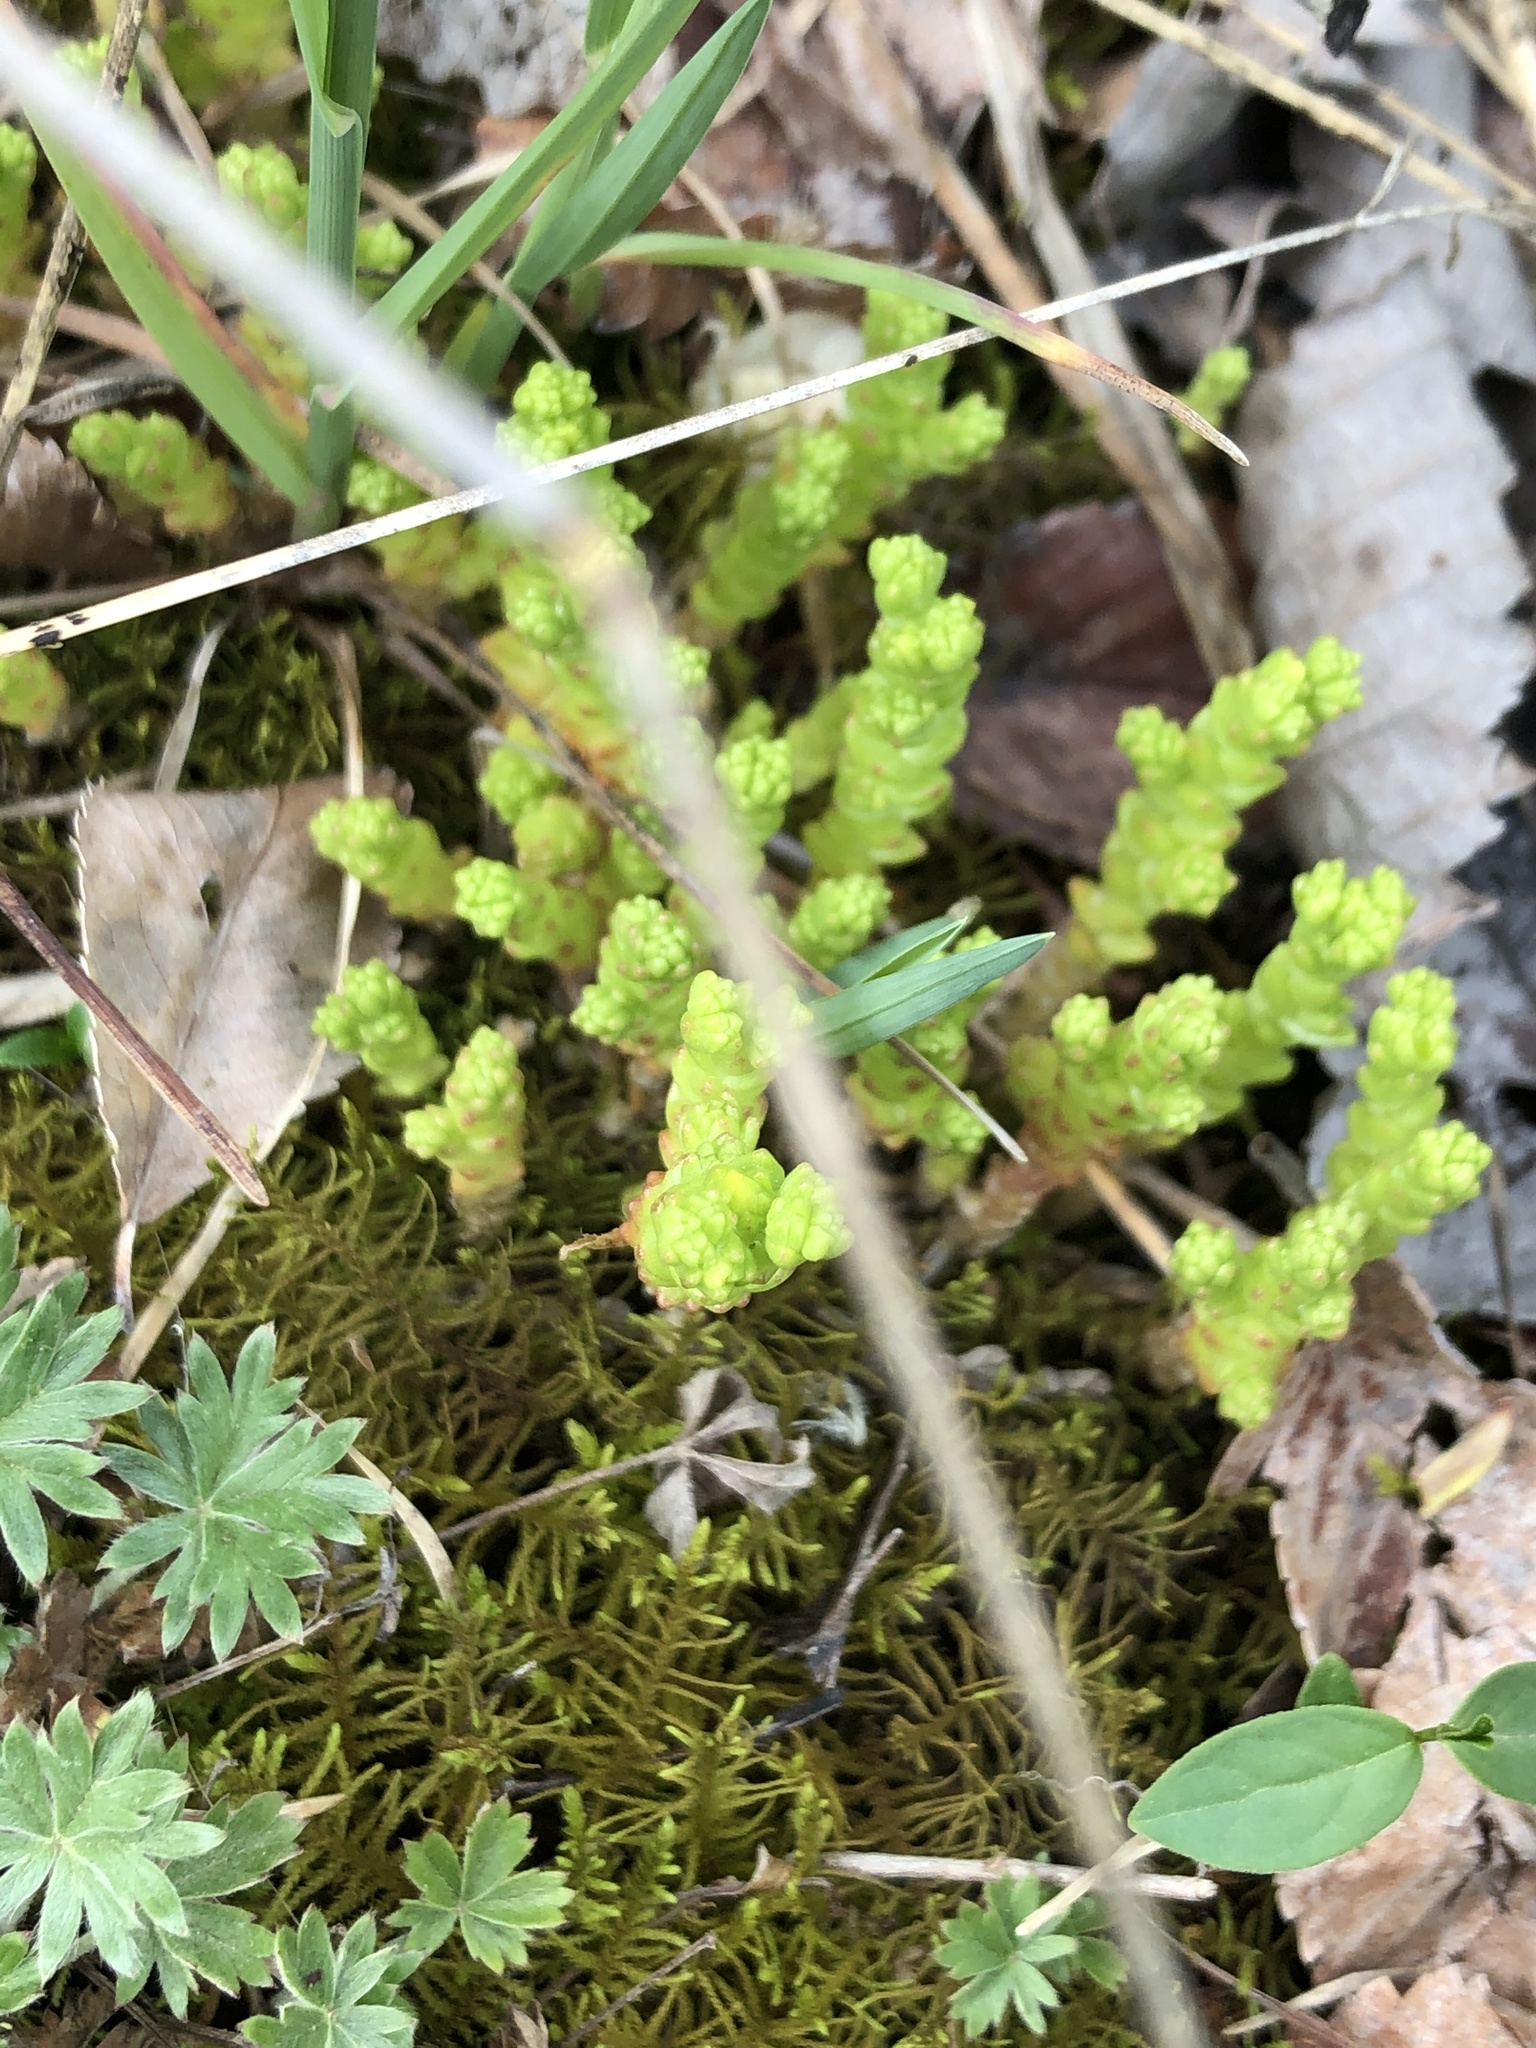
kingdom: Plantae
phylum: Tracheophyta
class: Magnoliopsida
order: Saxifragales
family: Crassulaceae
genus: Sedum
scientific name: Sedum acre
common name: Biting stonecrop
